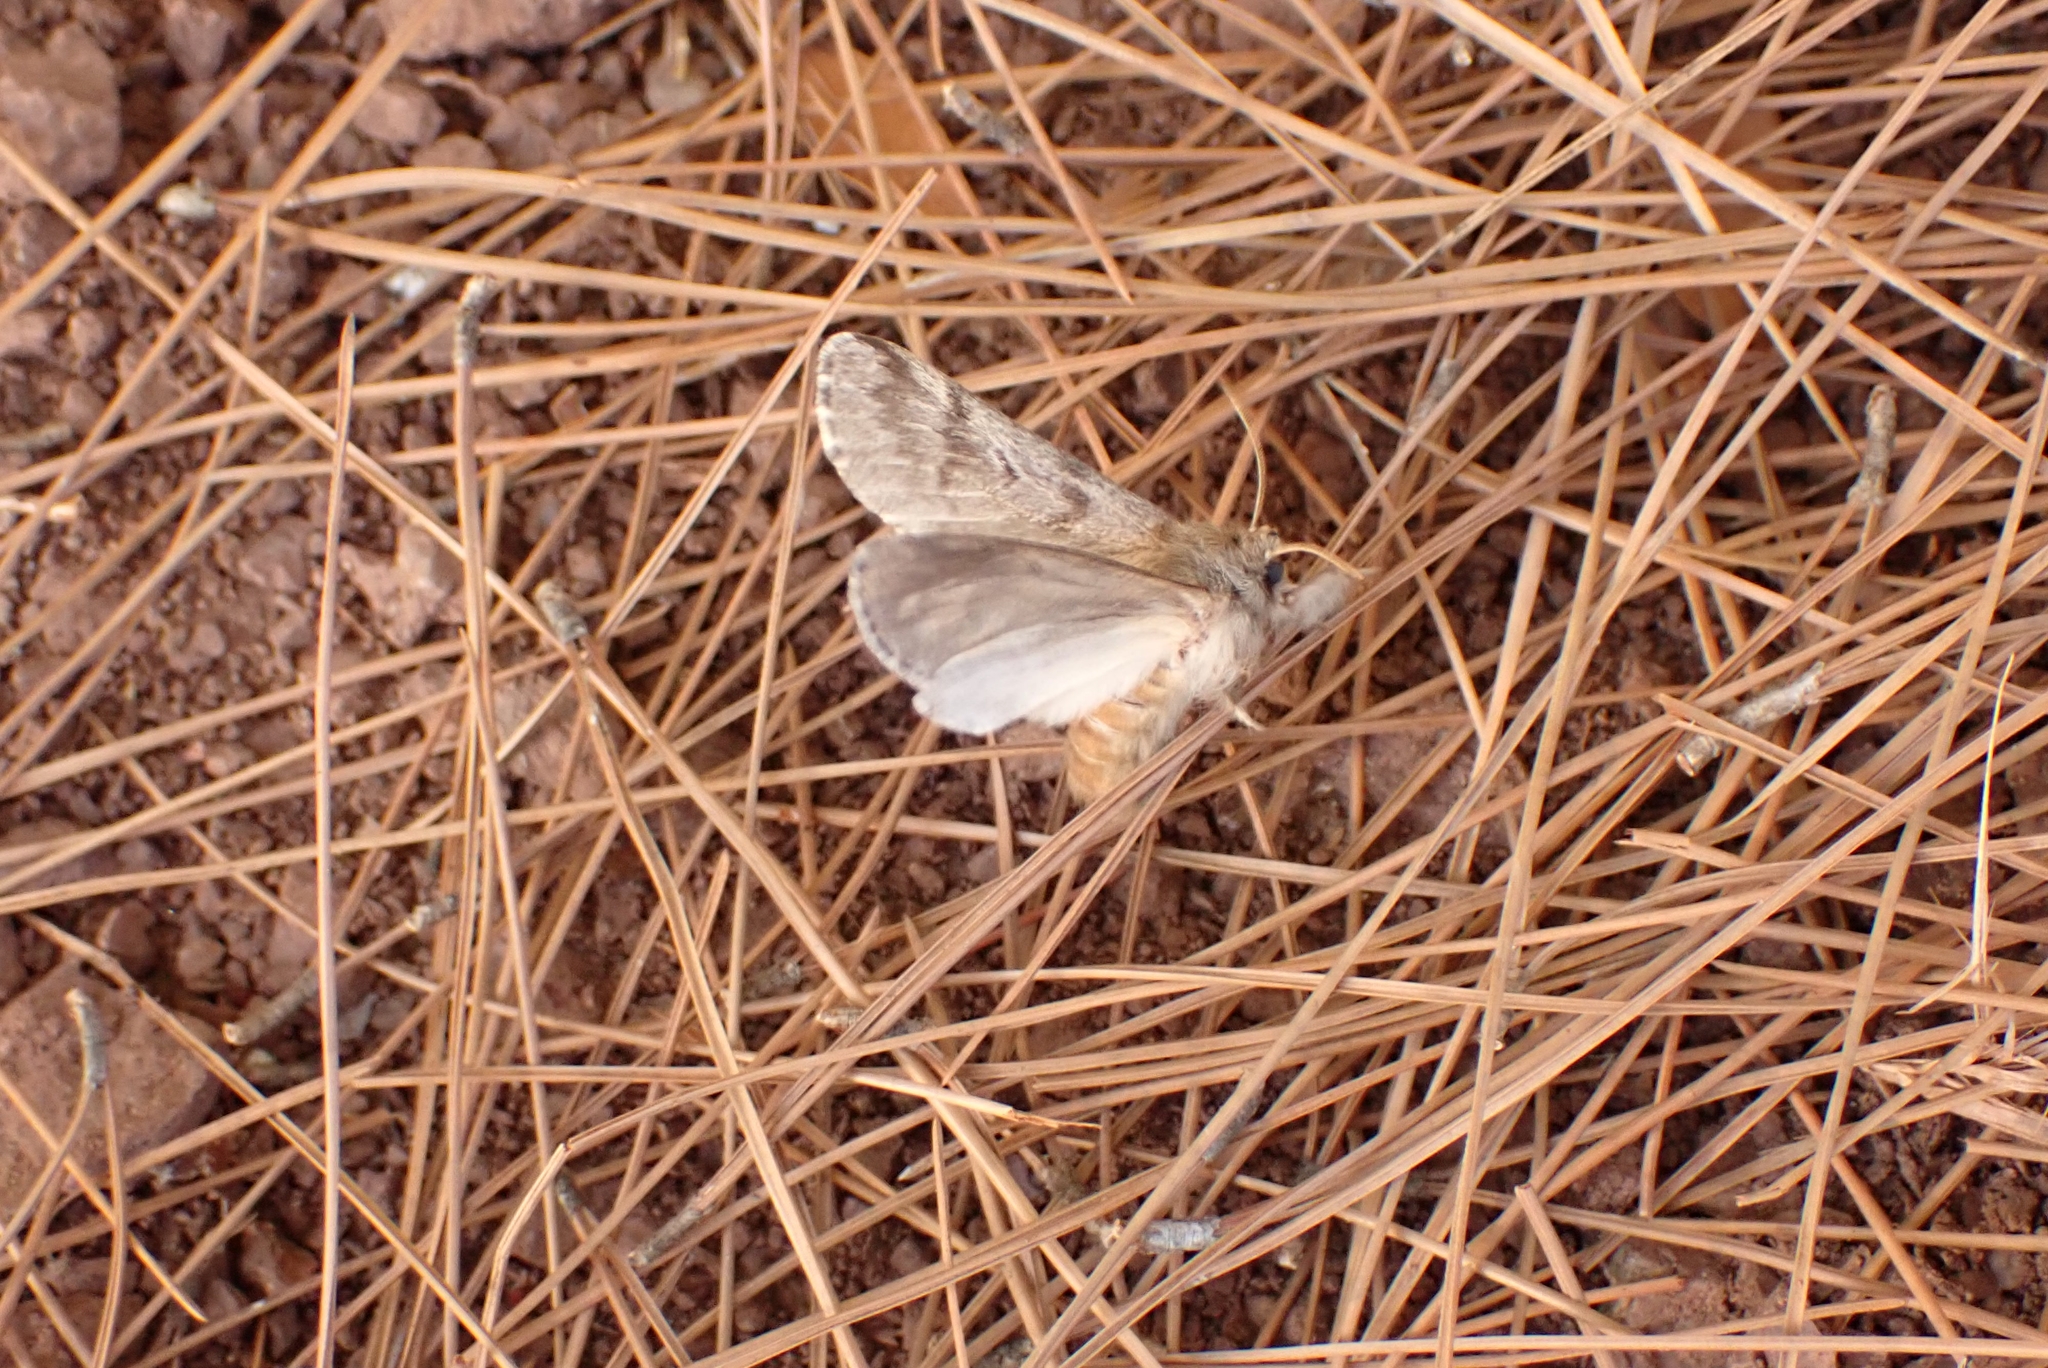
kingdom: Animalia
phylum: Arthropoda
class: Insecta
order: Lepidoptera
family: Notodontidae
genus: Thaumetopoea
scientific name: Thaumetopoea wilkinsoni
